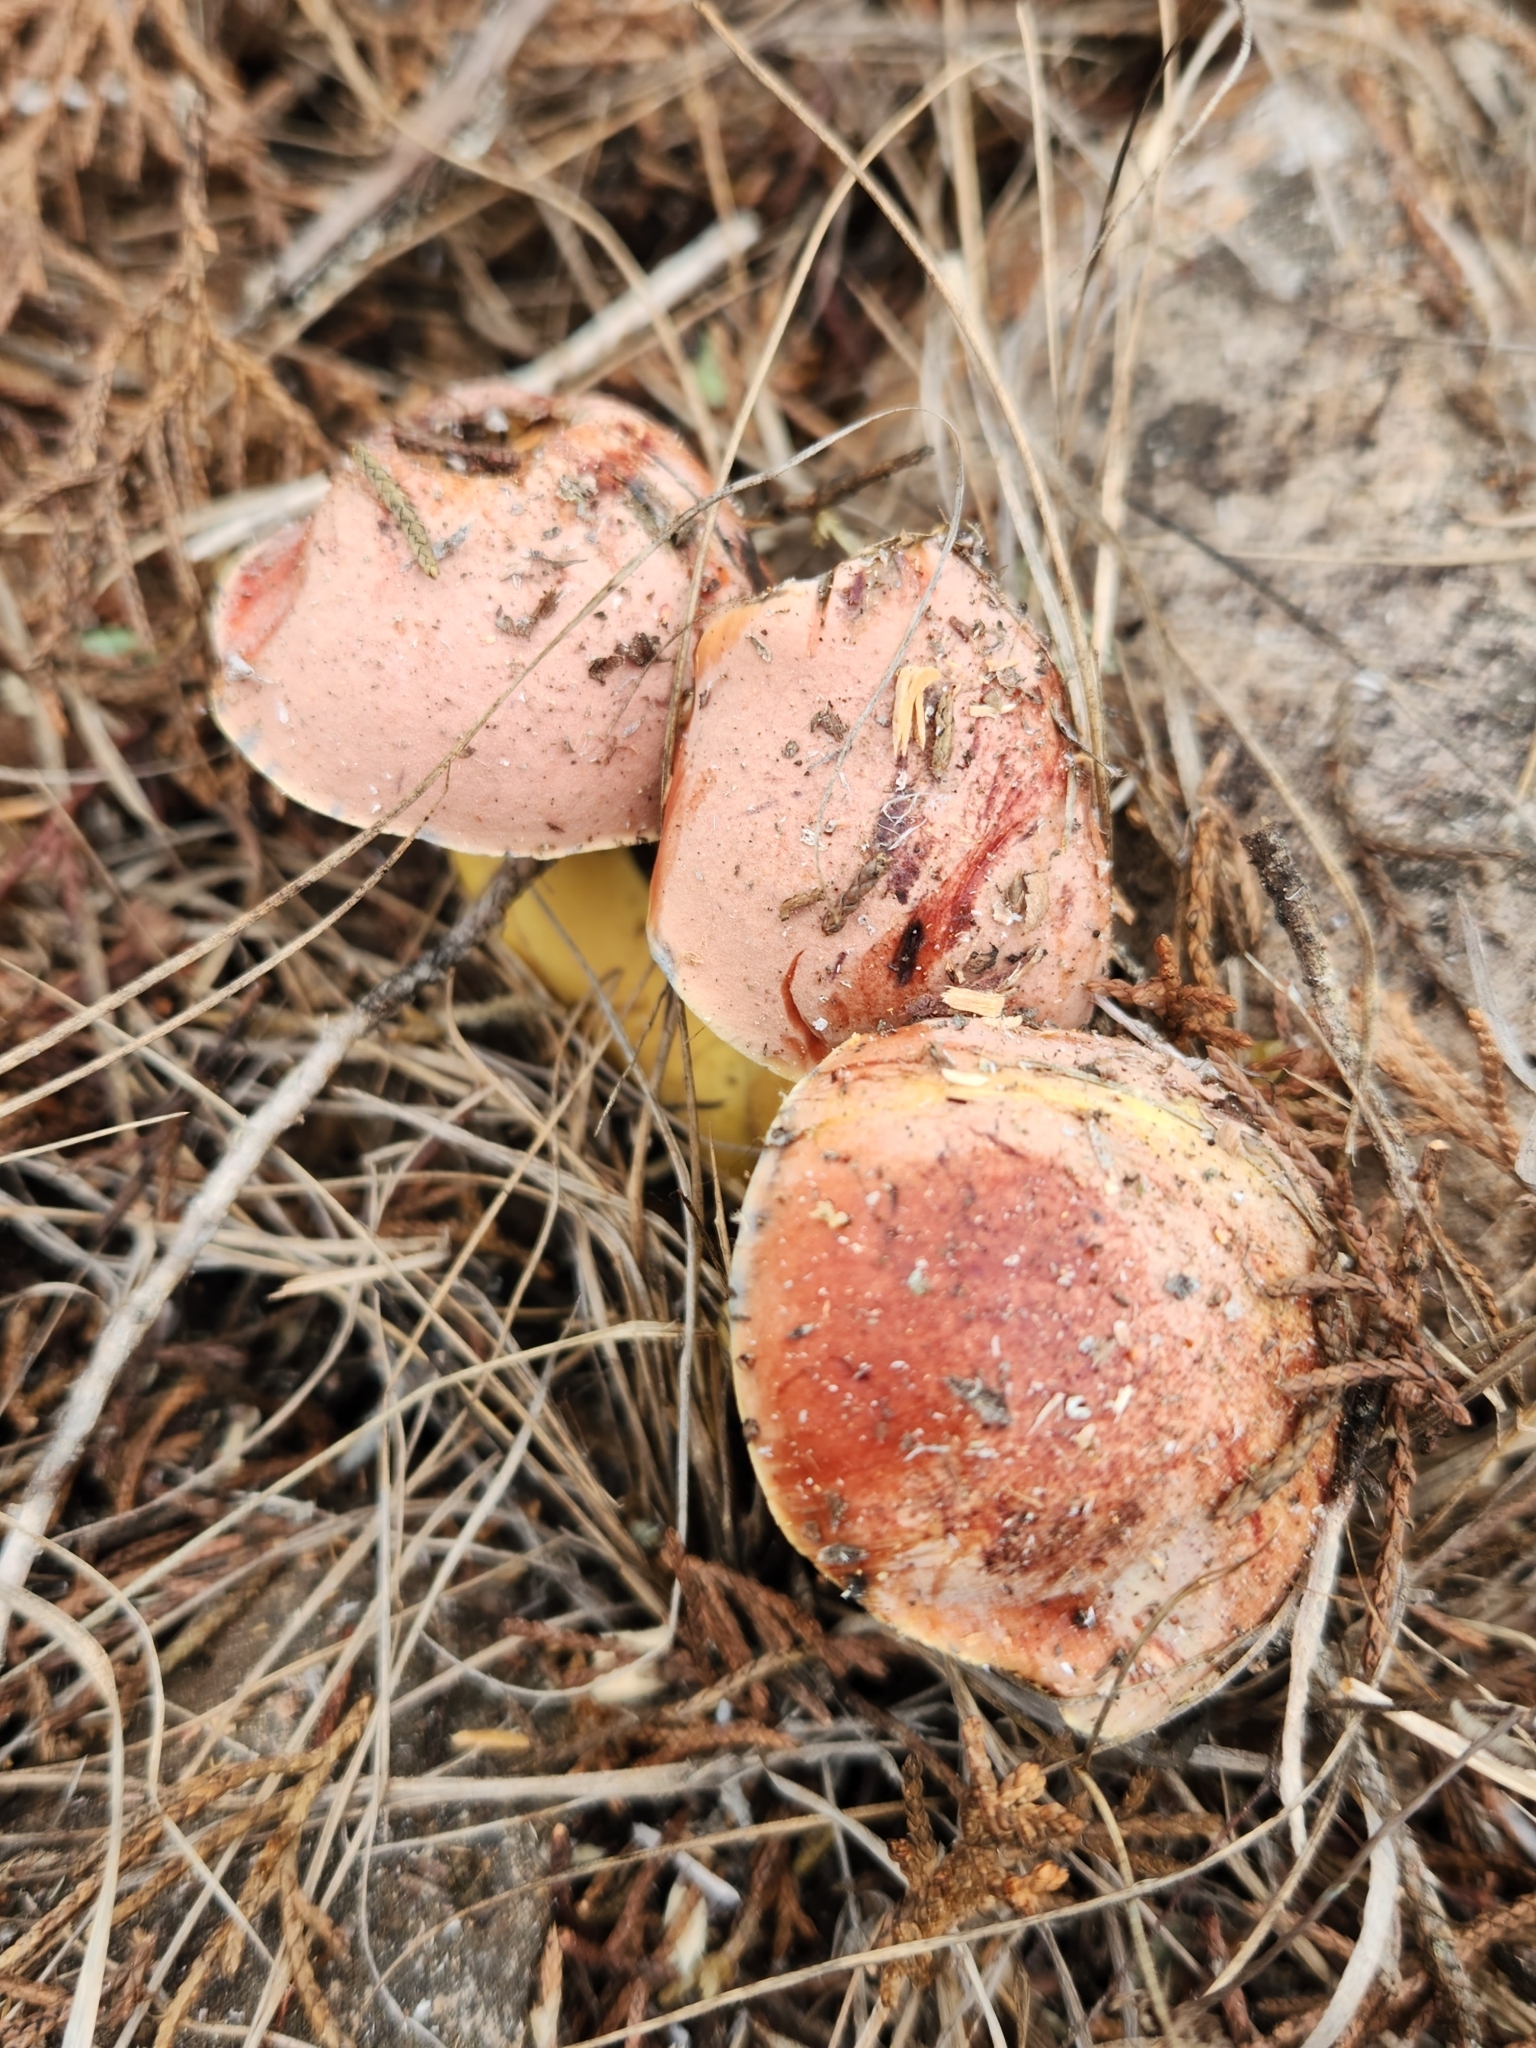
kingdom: Fungi
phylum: Basidiomycota
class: Agaricomycetes
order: Boletales
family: Boletaceae
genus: Pulchroboletus
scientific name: Pulchroboletus rubricitrinus
